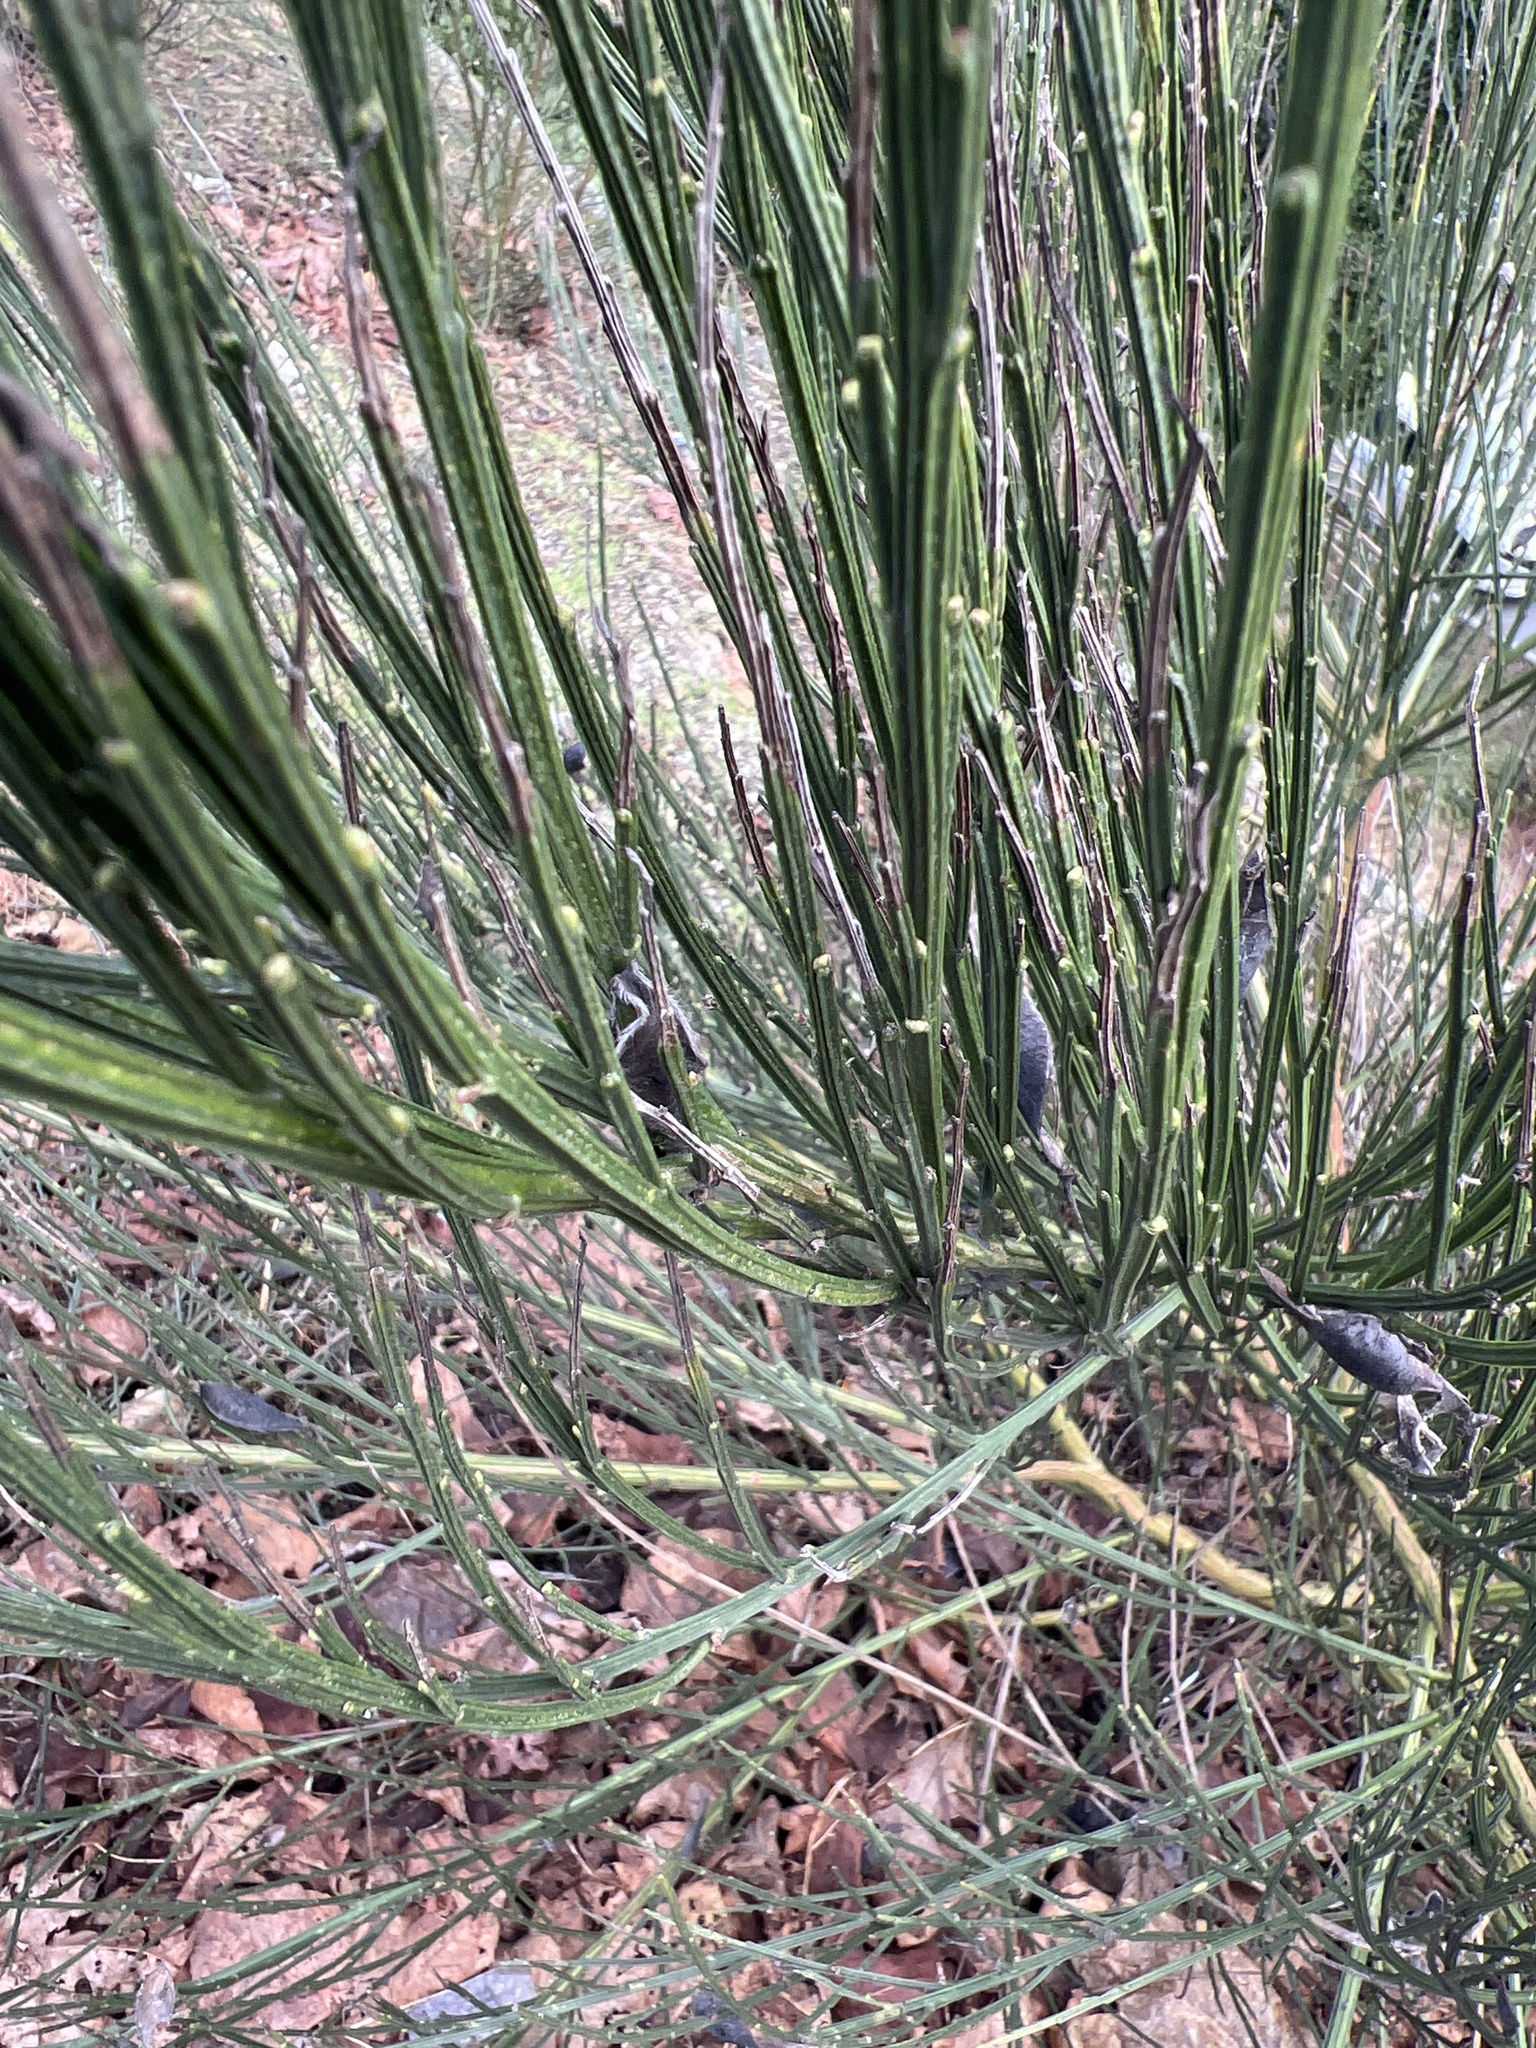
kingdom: Plantae
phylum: Tracheophyta
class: Magnoliopsida
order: Fabales
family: Fabaceae
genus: Cytisus
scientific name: Cytisus scoparius
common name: Scotch broom
